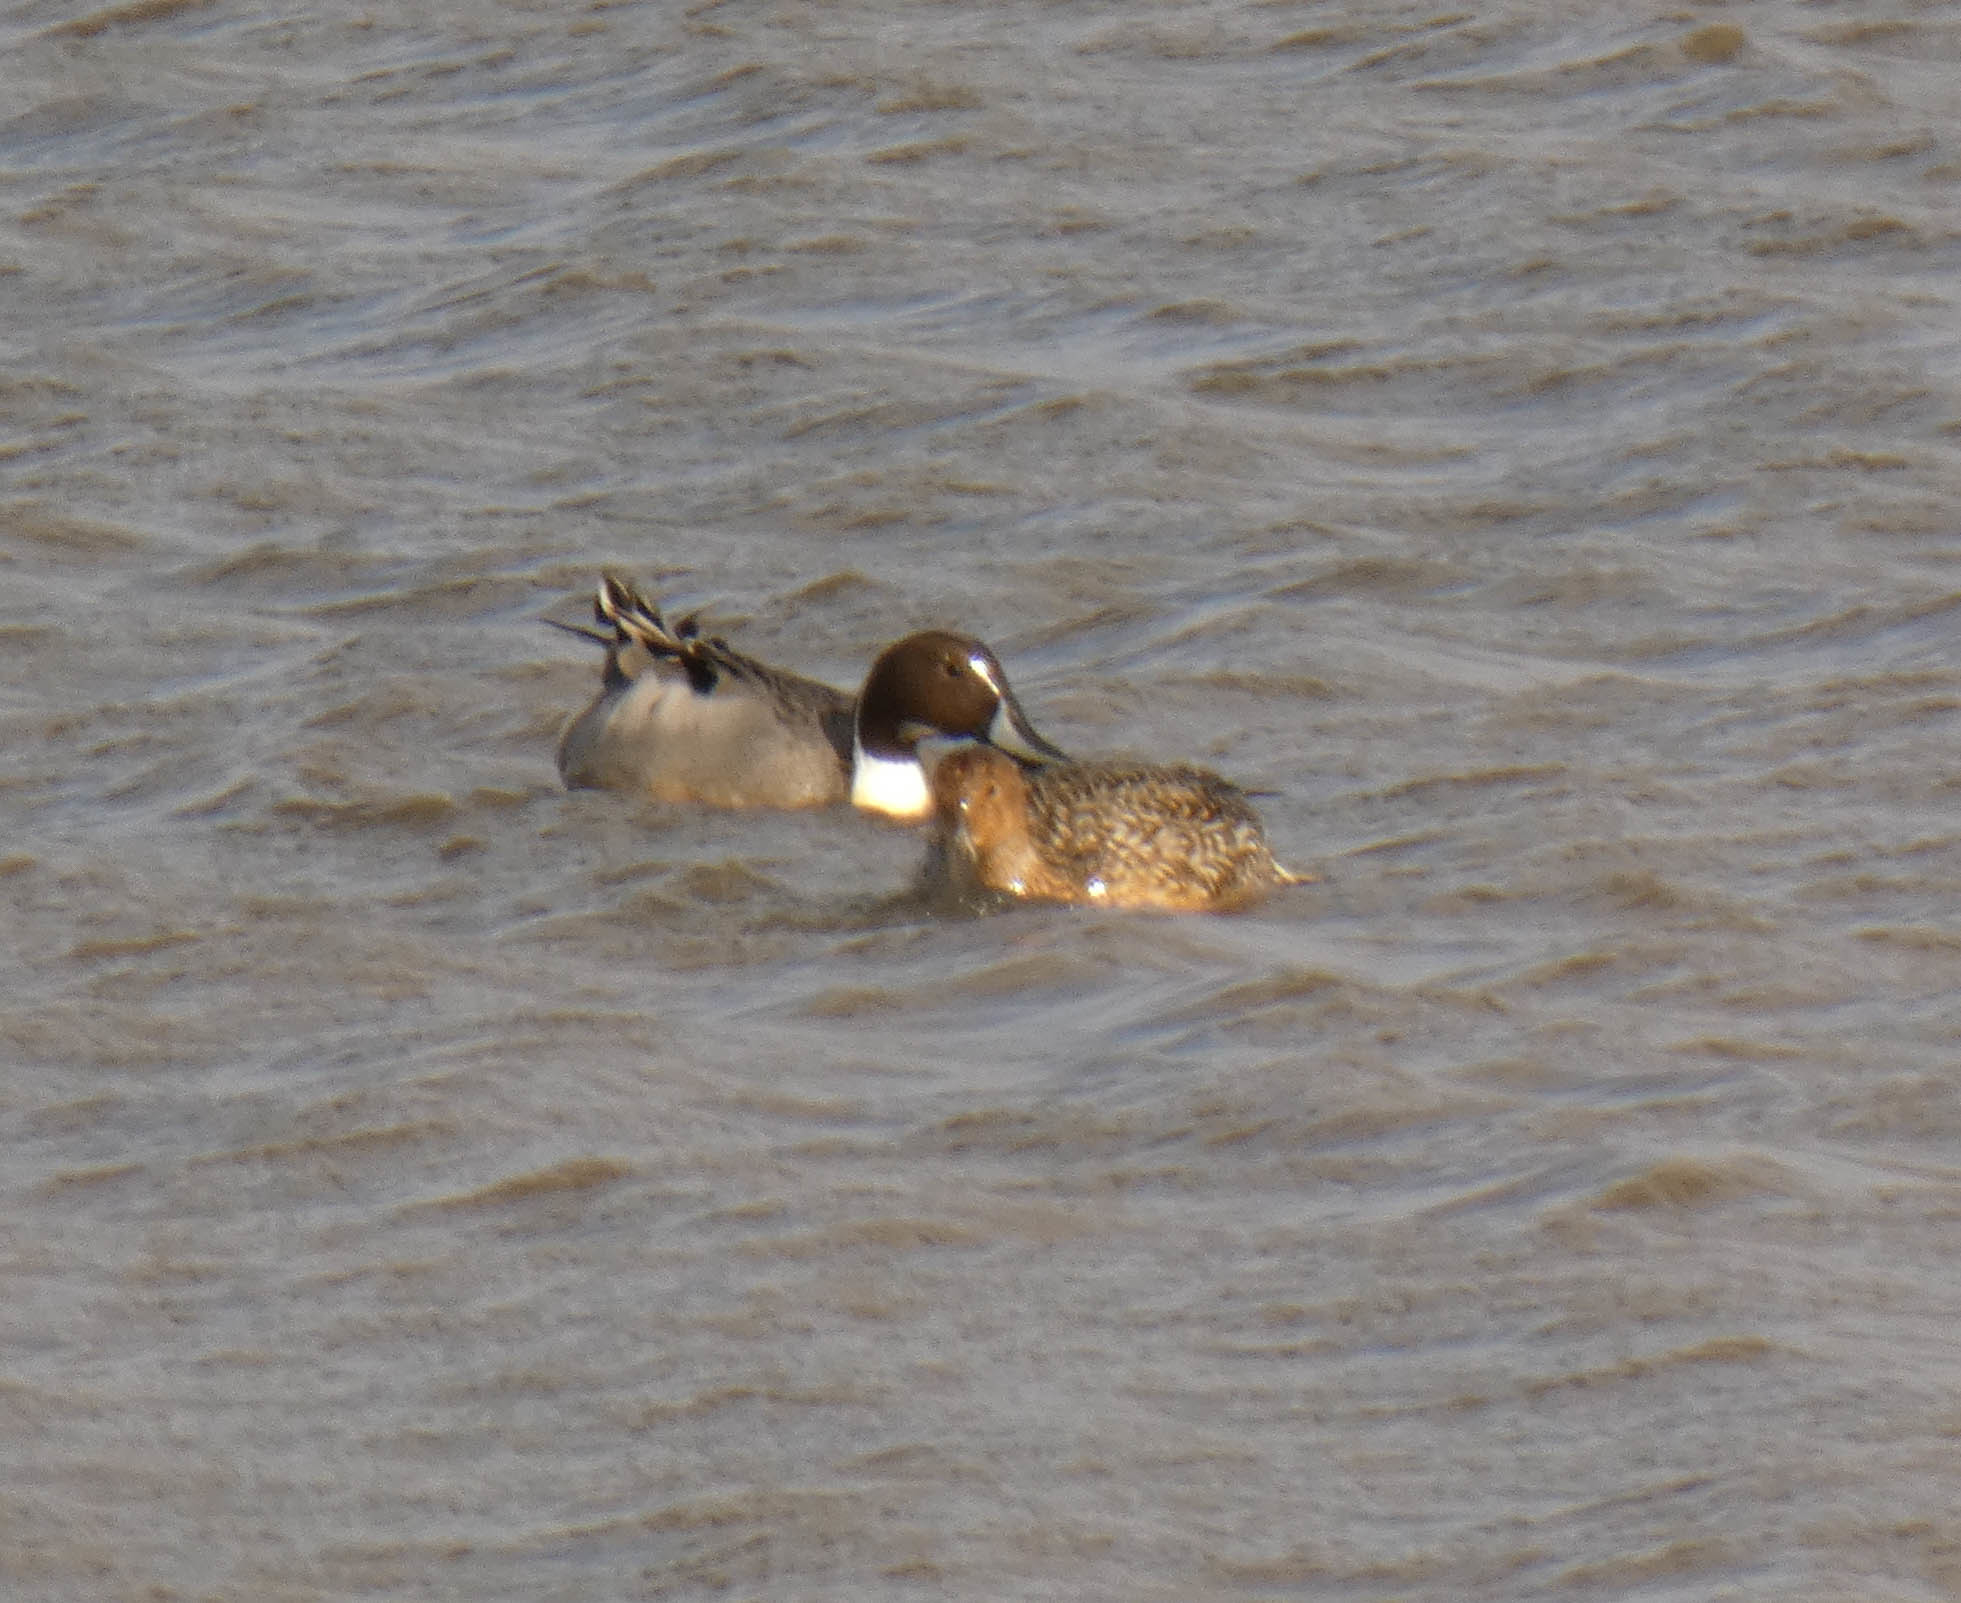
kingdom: Animalia
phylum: Chordata
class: Aves
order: Anseriformes
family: Anatidae
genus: Anas
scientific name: Anas acuta
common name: Northern pintail
